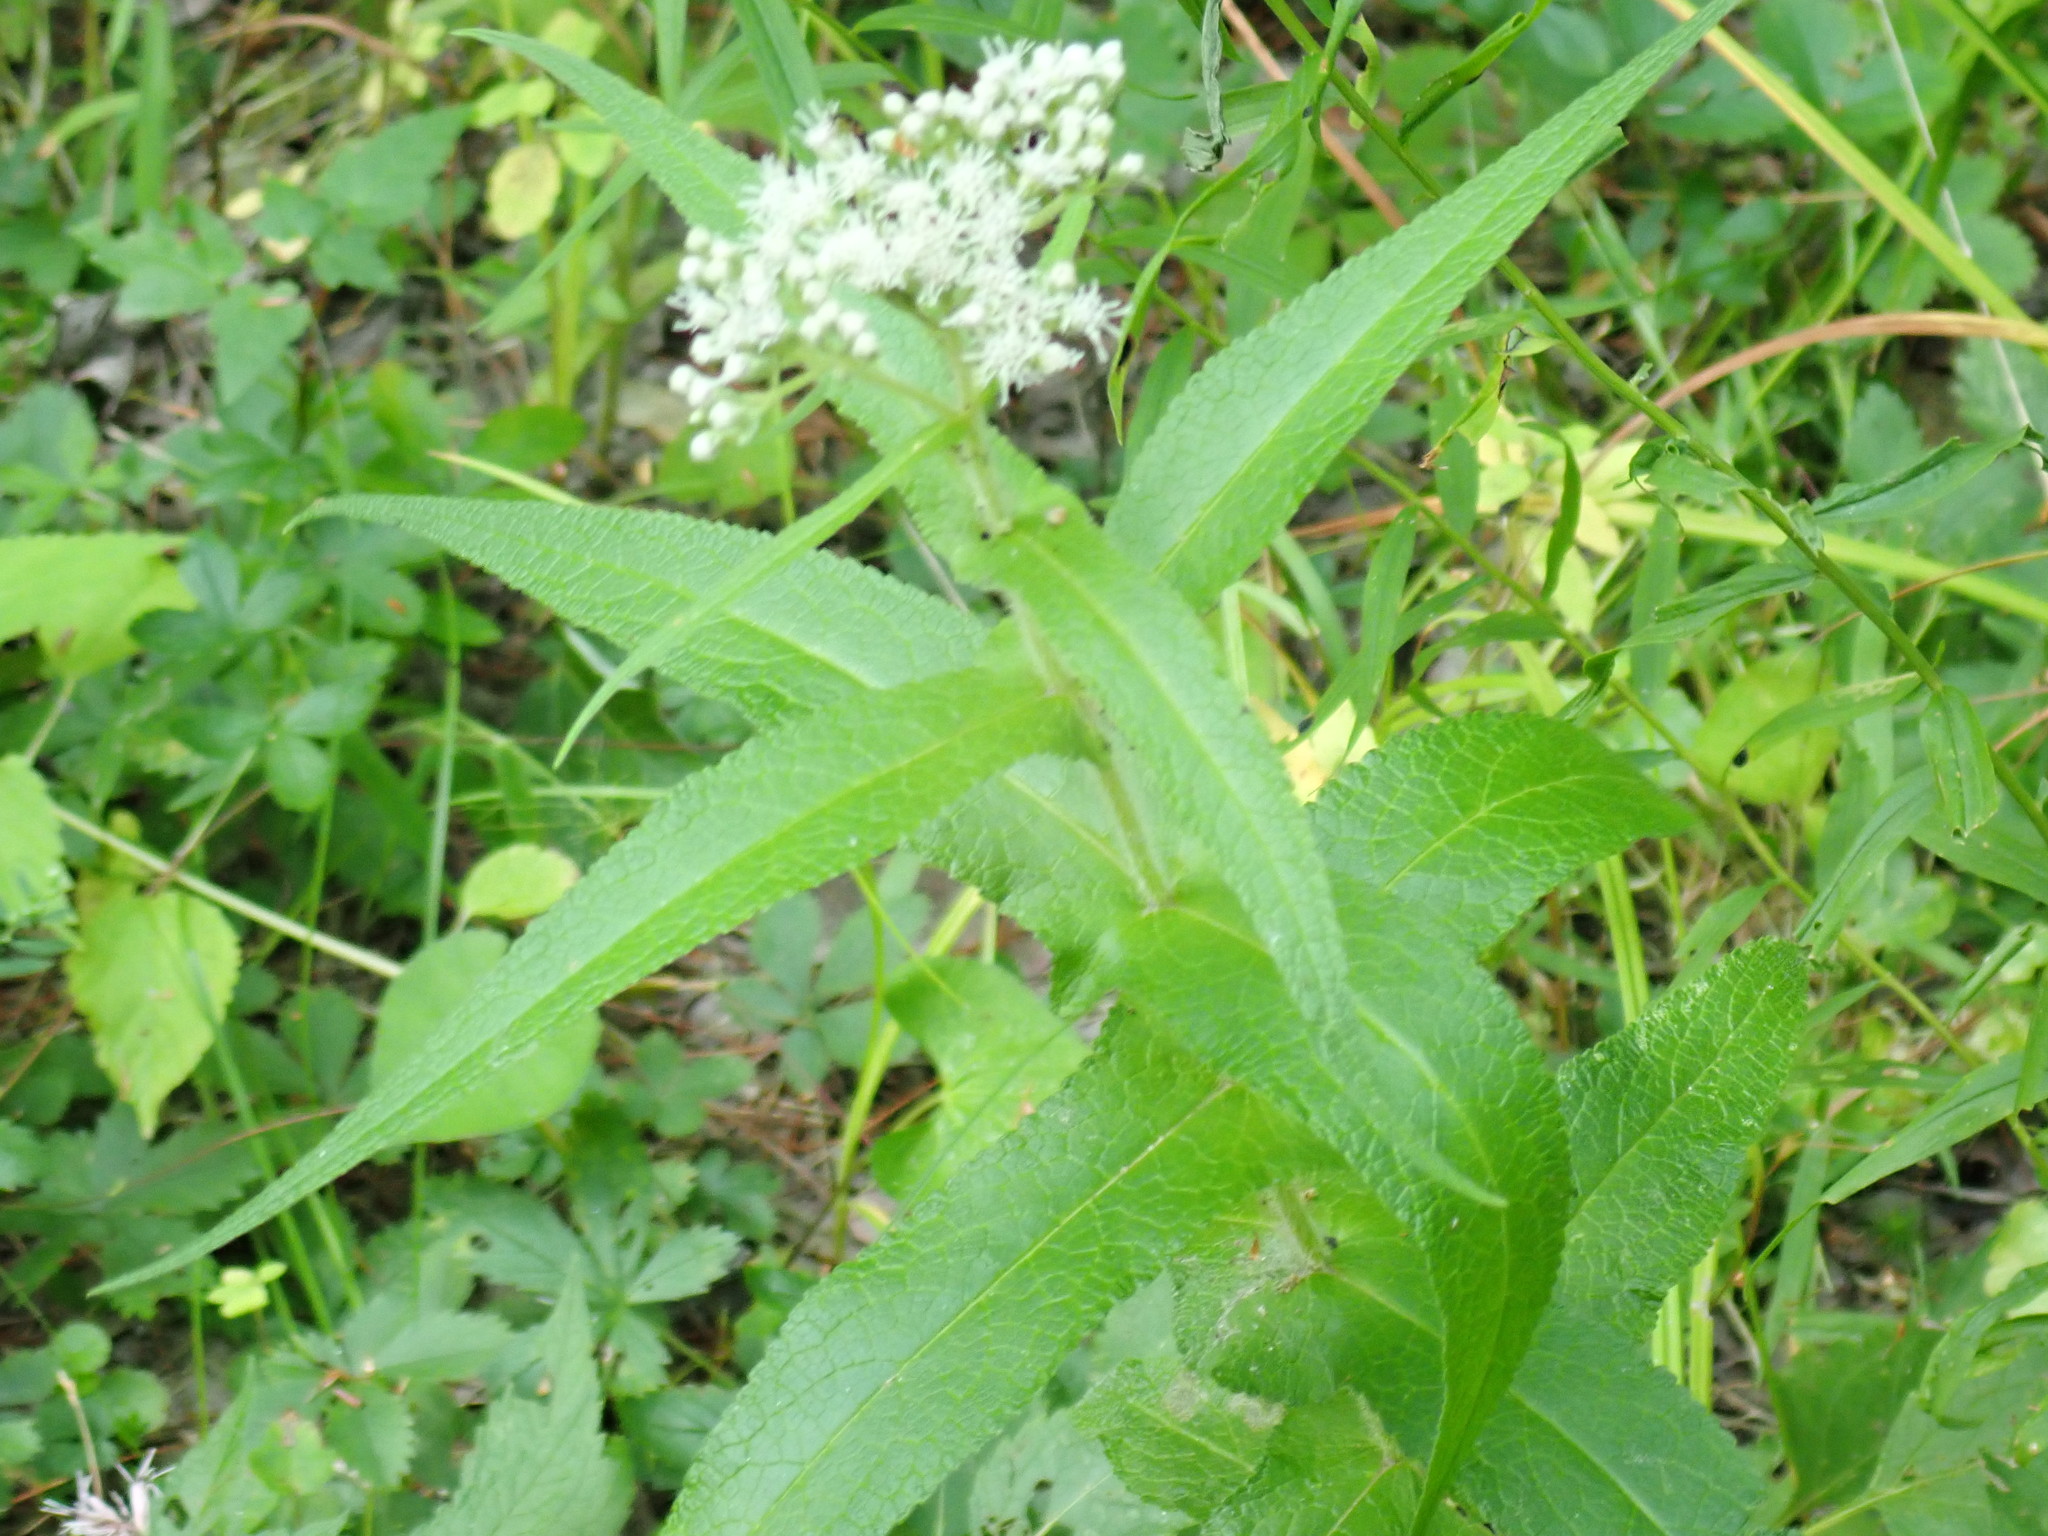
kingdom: Plantae
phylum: Tracheophyta
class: Magnoliopsida
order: Asterales
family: Asteraceae
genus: Eupatorium
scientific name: Eupatorium perfoliatum
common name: Boneset
